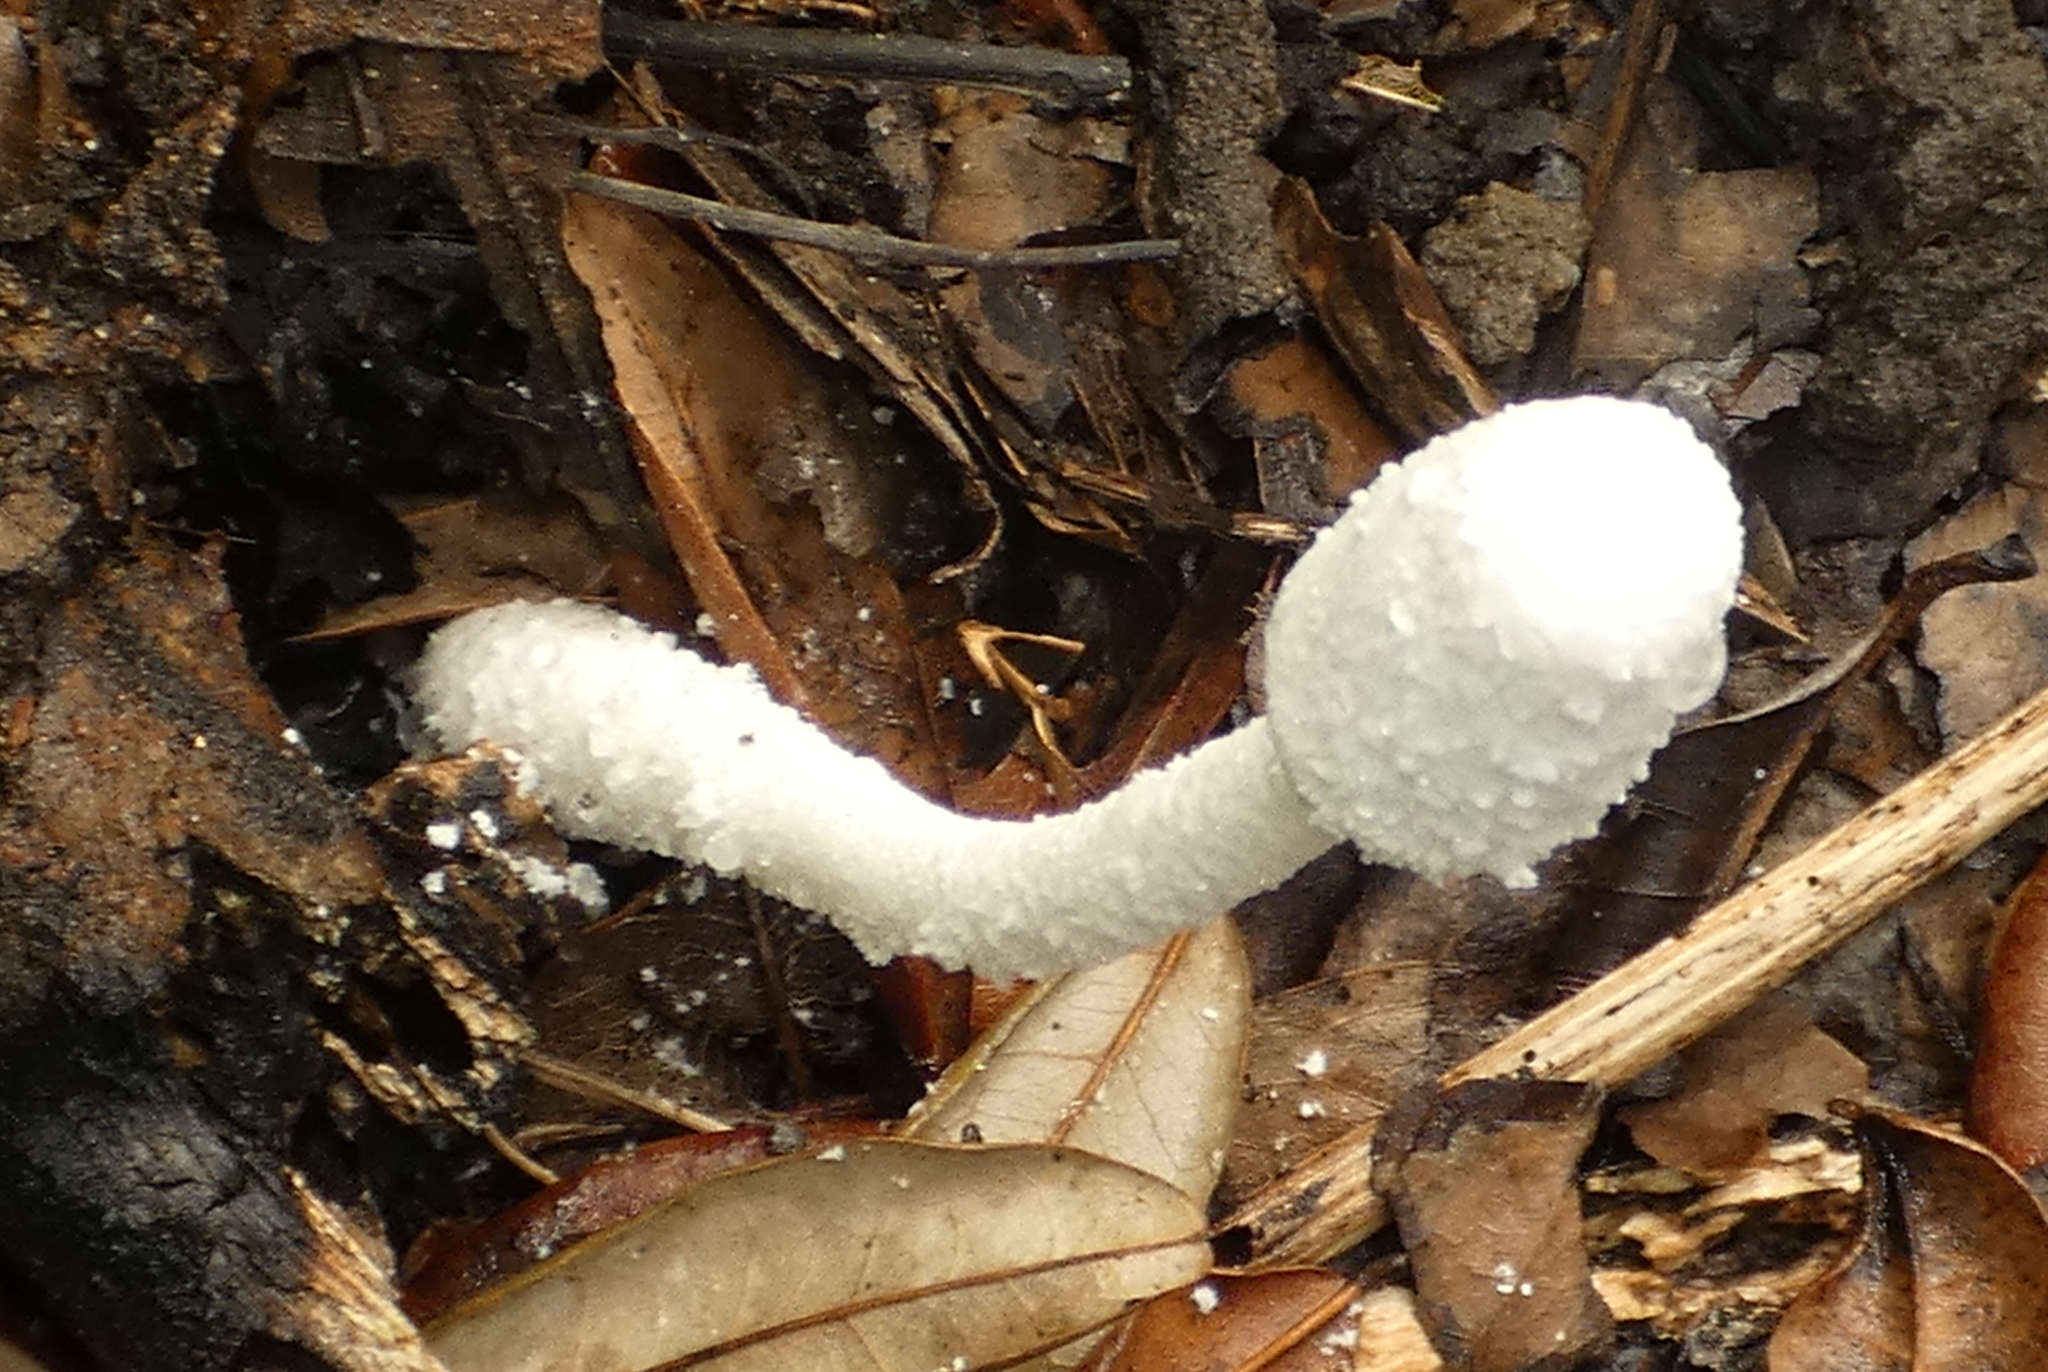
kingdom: Fungi
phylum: Basidiomycota
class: Agaricomycetes
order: Agaricales
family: Agaricaceae
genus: Leucocoprinus
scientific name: Leucocoprinus cretaceus
